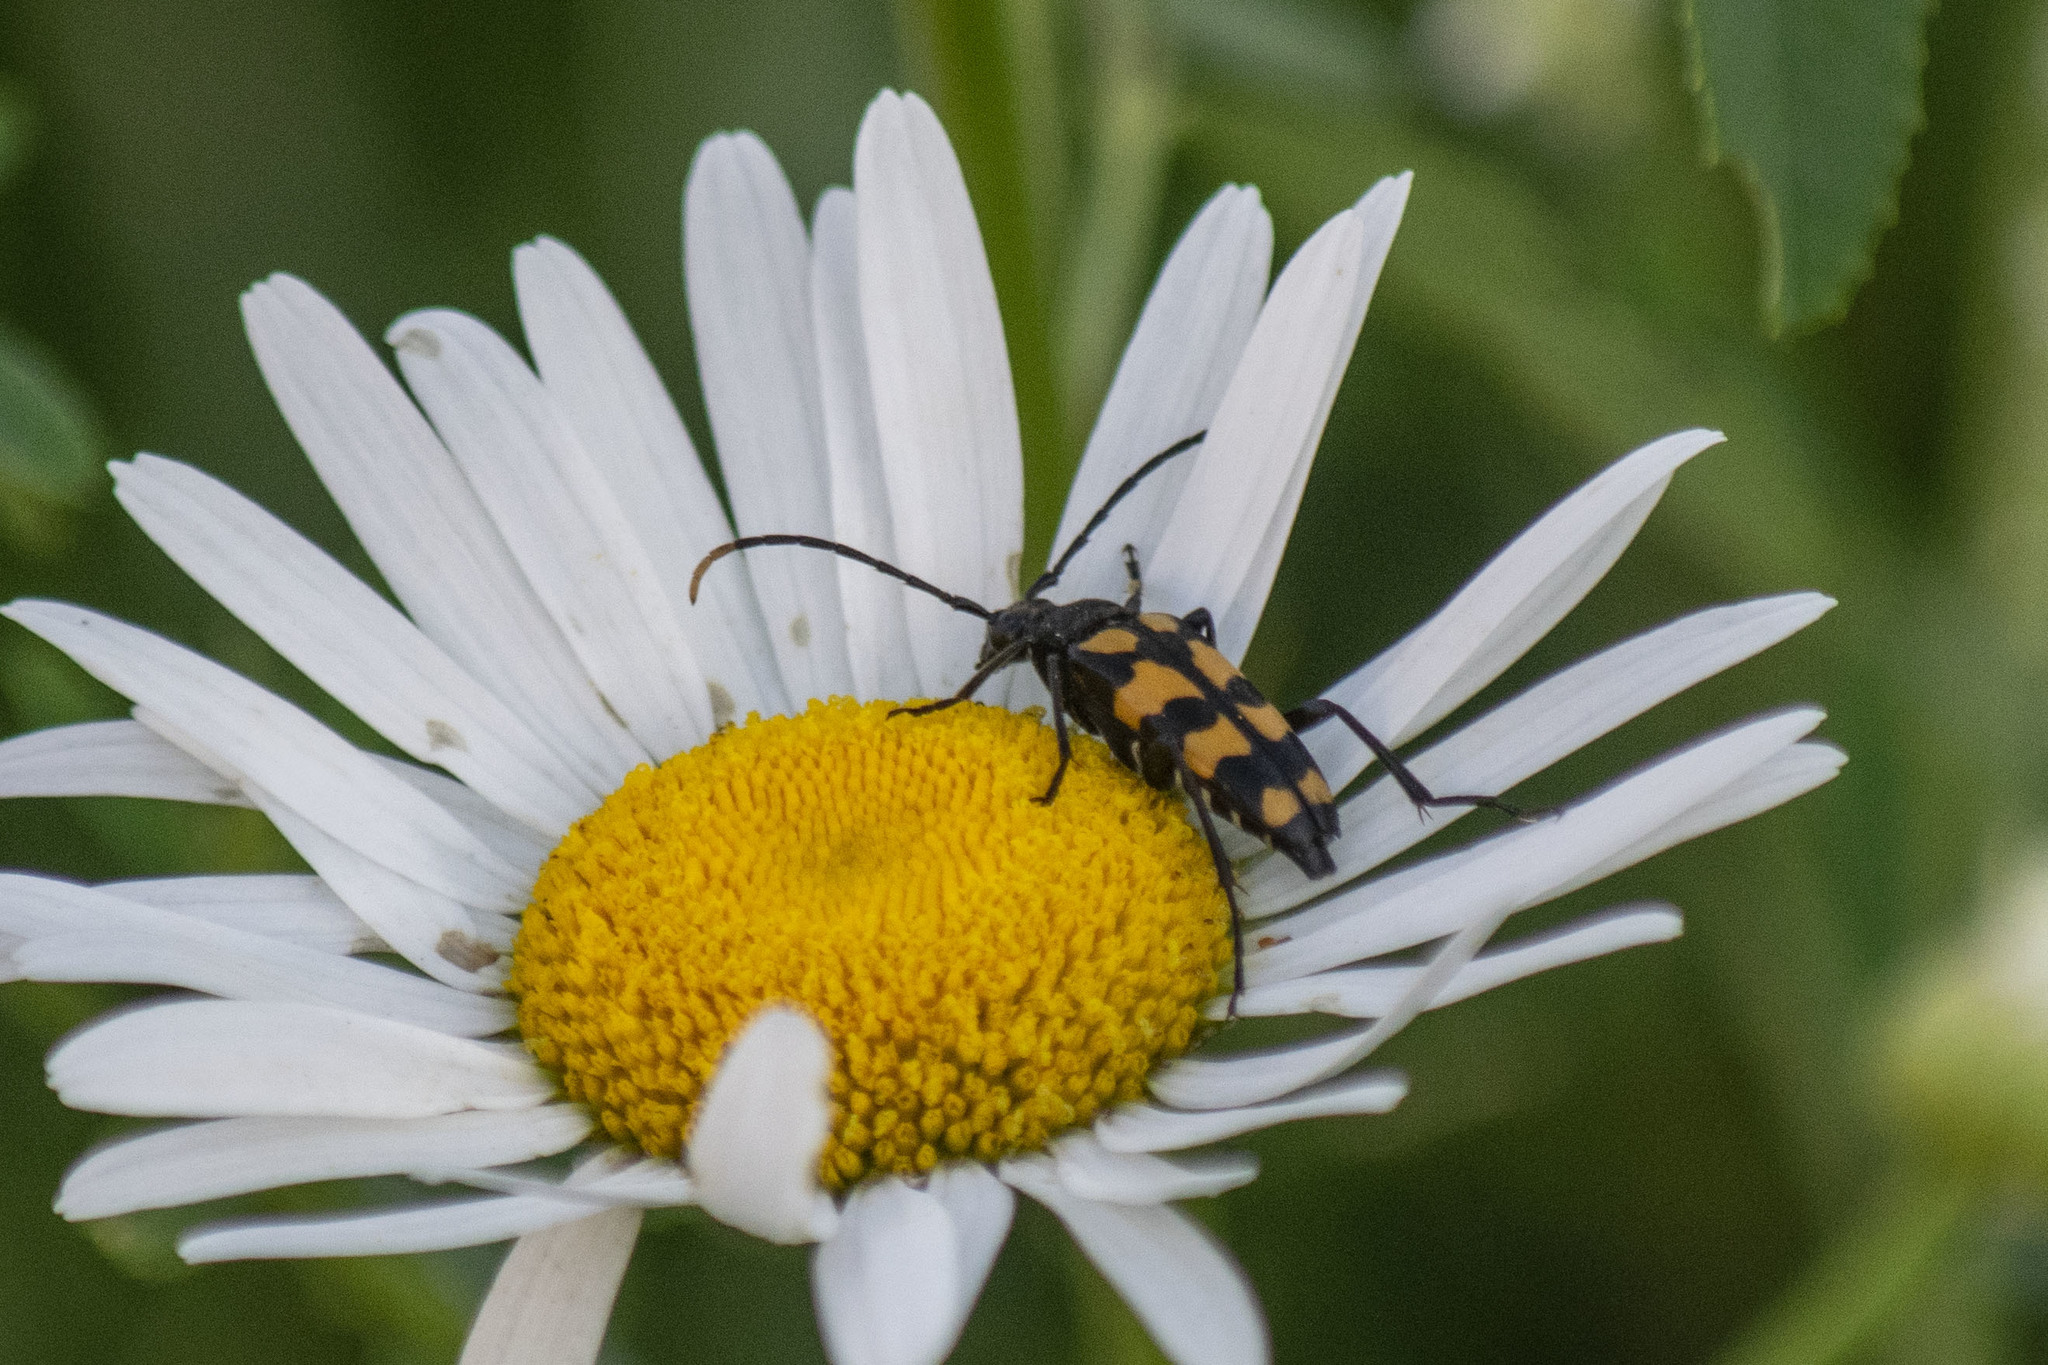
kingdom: Animalia
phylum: Arthropoda
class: Insecta
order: Coleoptera
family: Cerambycidae
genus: Leptura
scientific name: Leptura quadrifasciata
